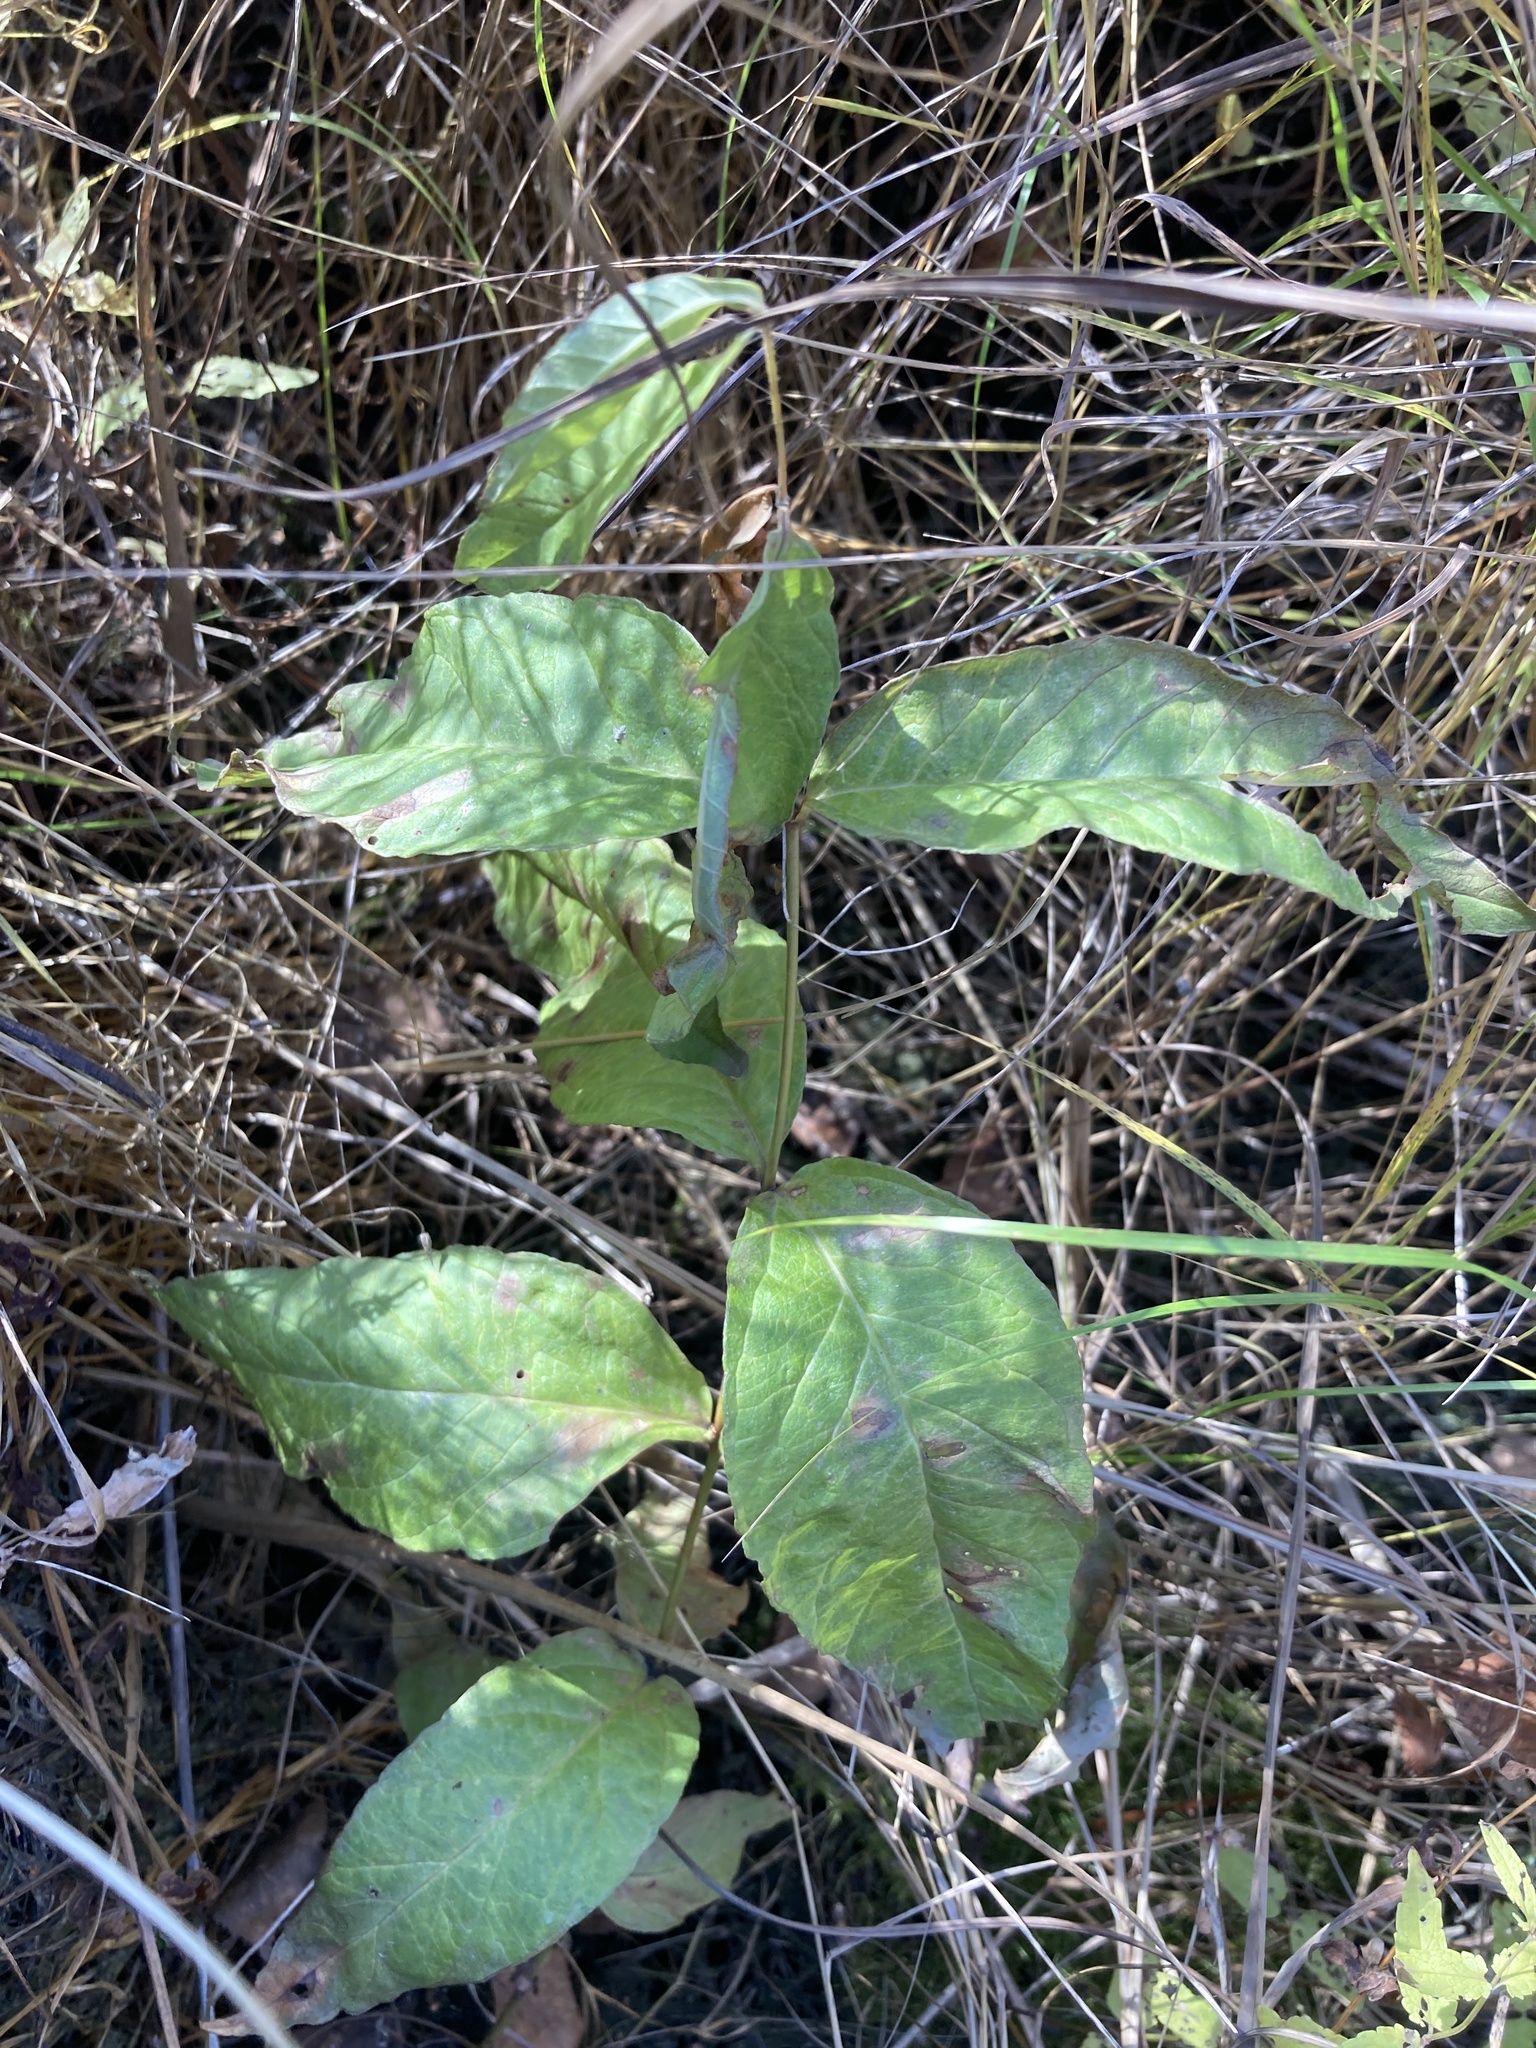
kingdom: Plantae
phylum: Tracheophyta
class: Magnoliopsida
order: Ericales
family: Primulaceae
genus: Lysimachia
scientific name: Lysimachia vulgaris
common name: Yellow loosestrife
